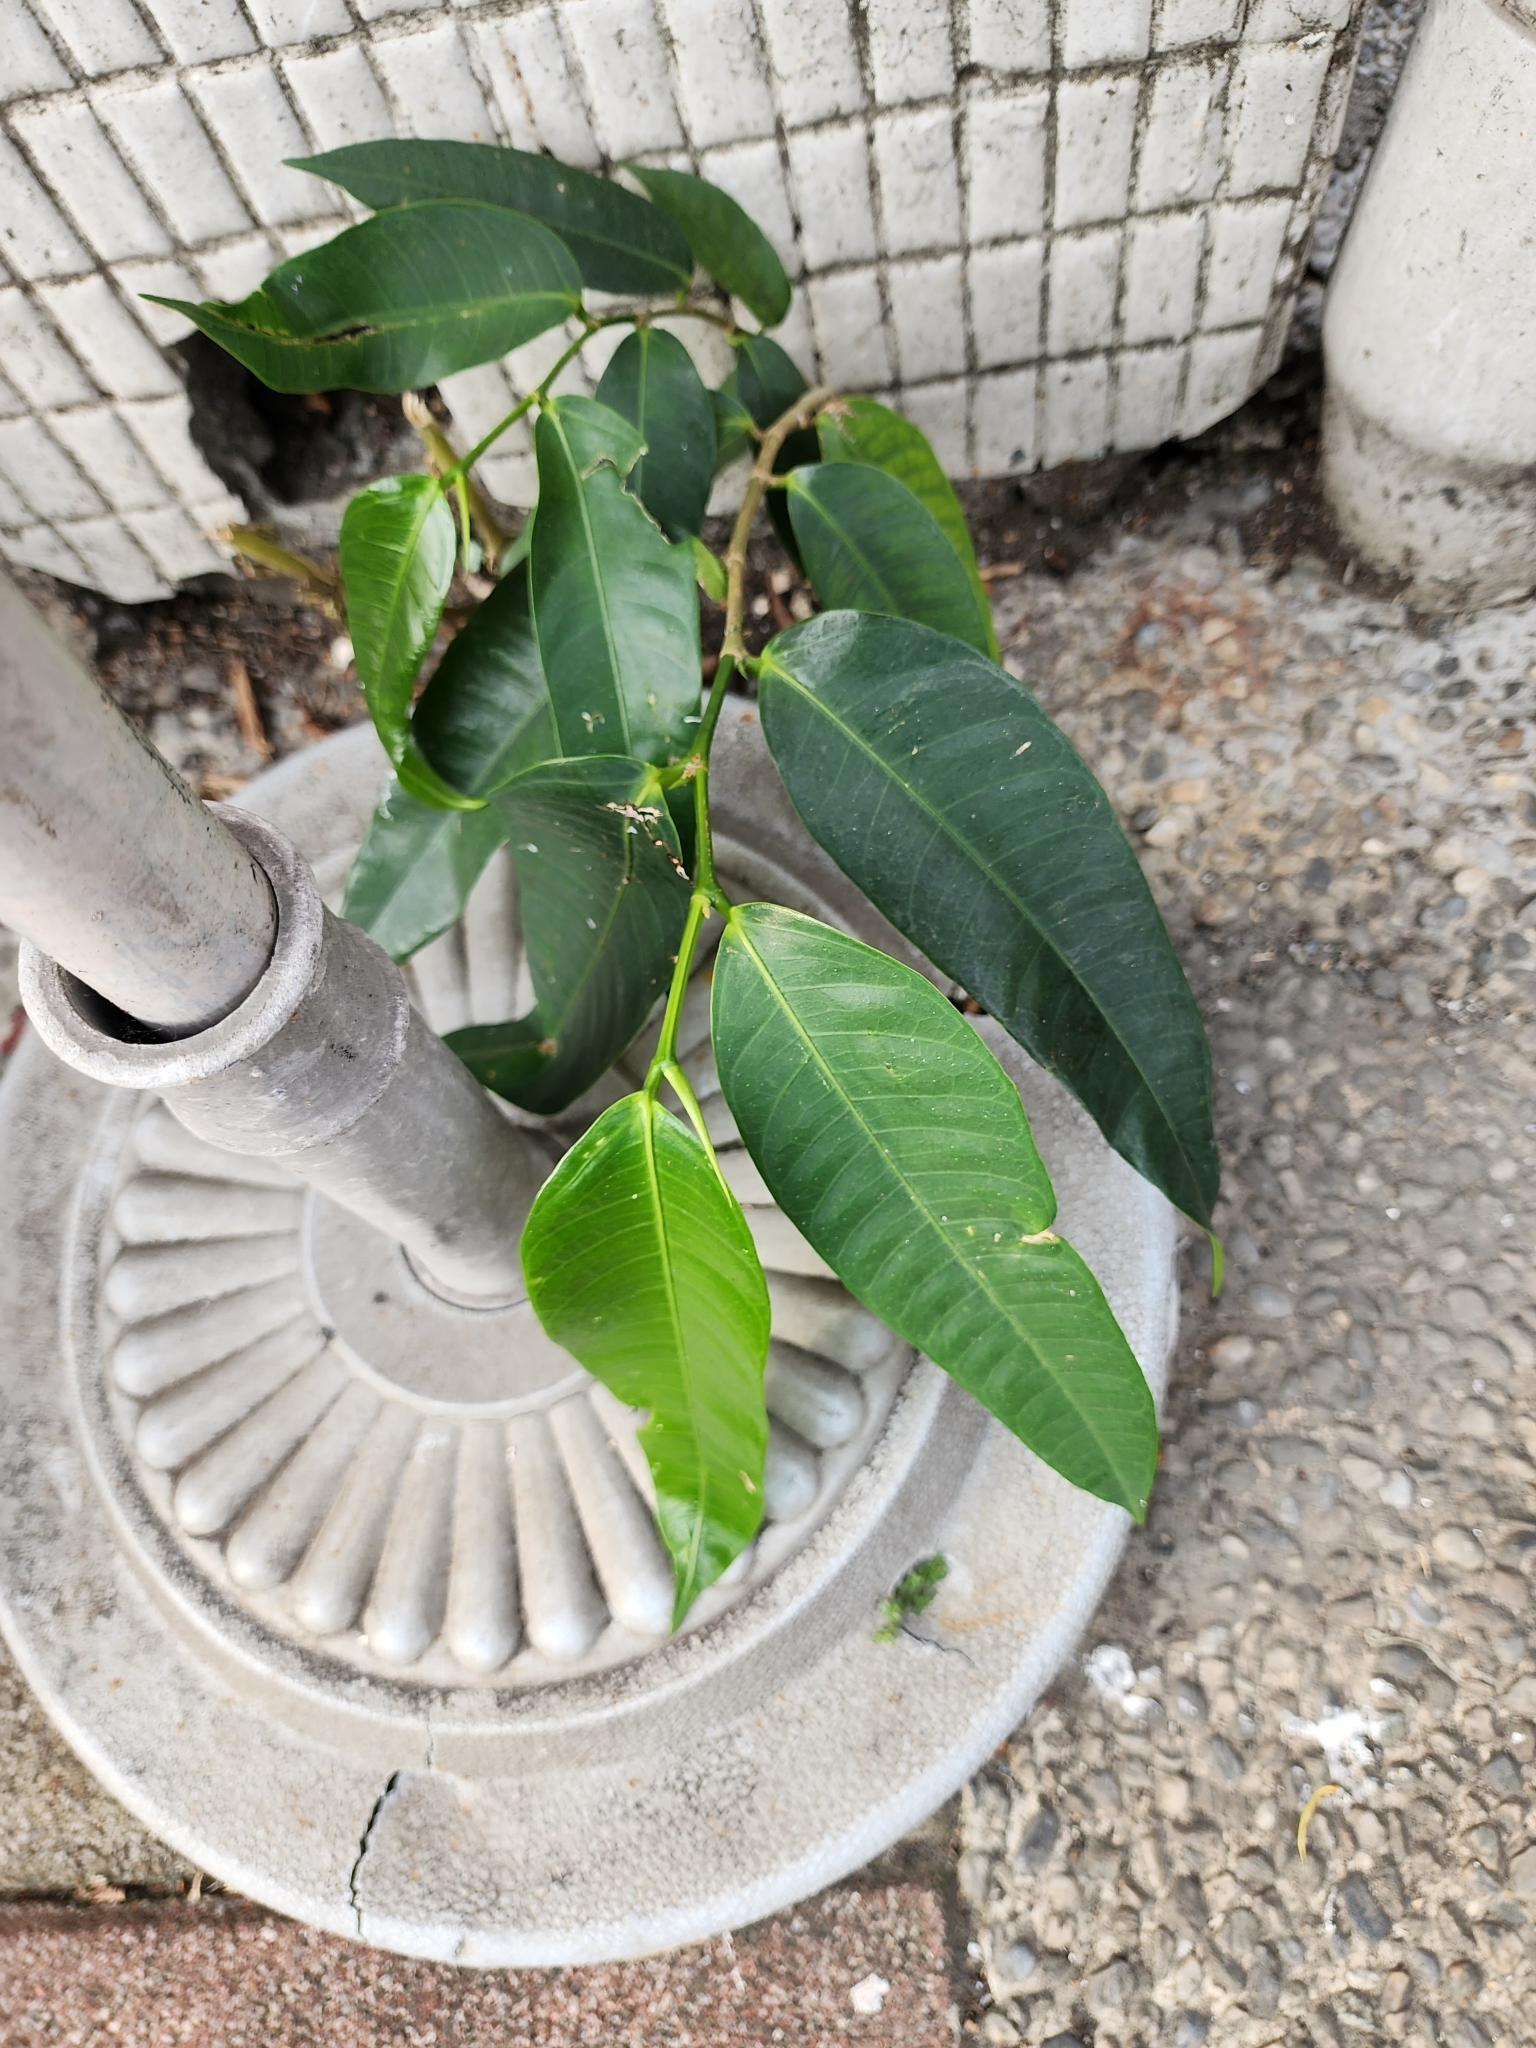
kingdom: Plantae
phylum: Tracheophyta
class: Magnoliopsida
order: Rosales
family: Moraceae
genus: Ficus
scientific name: Ficus virgata
